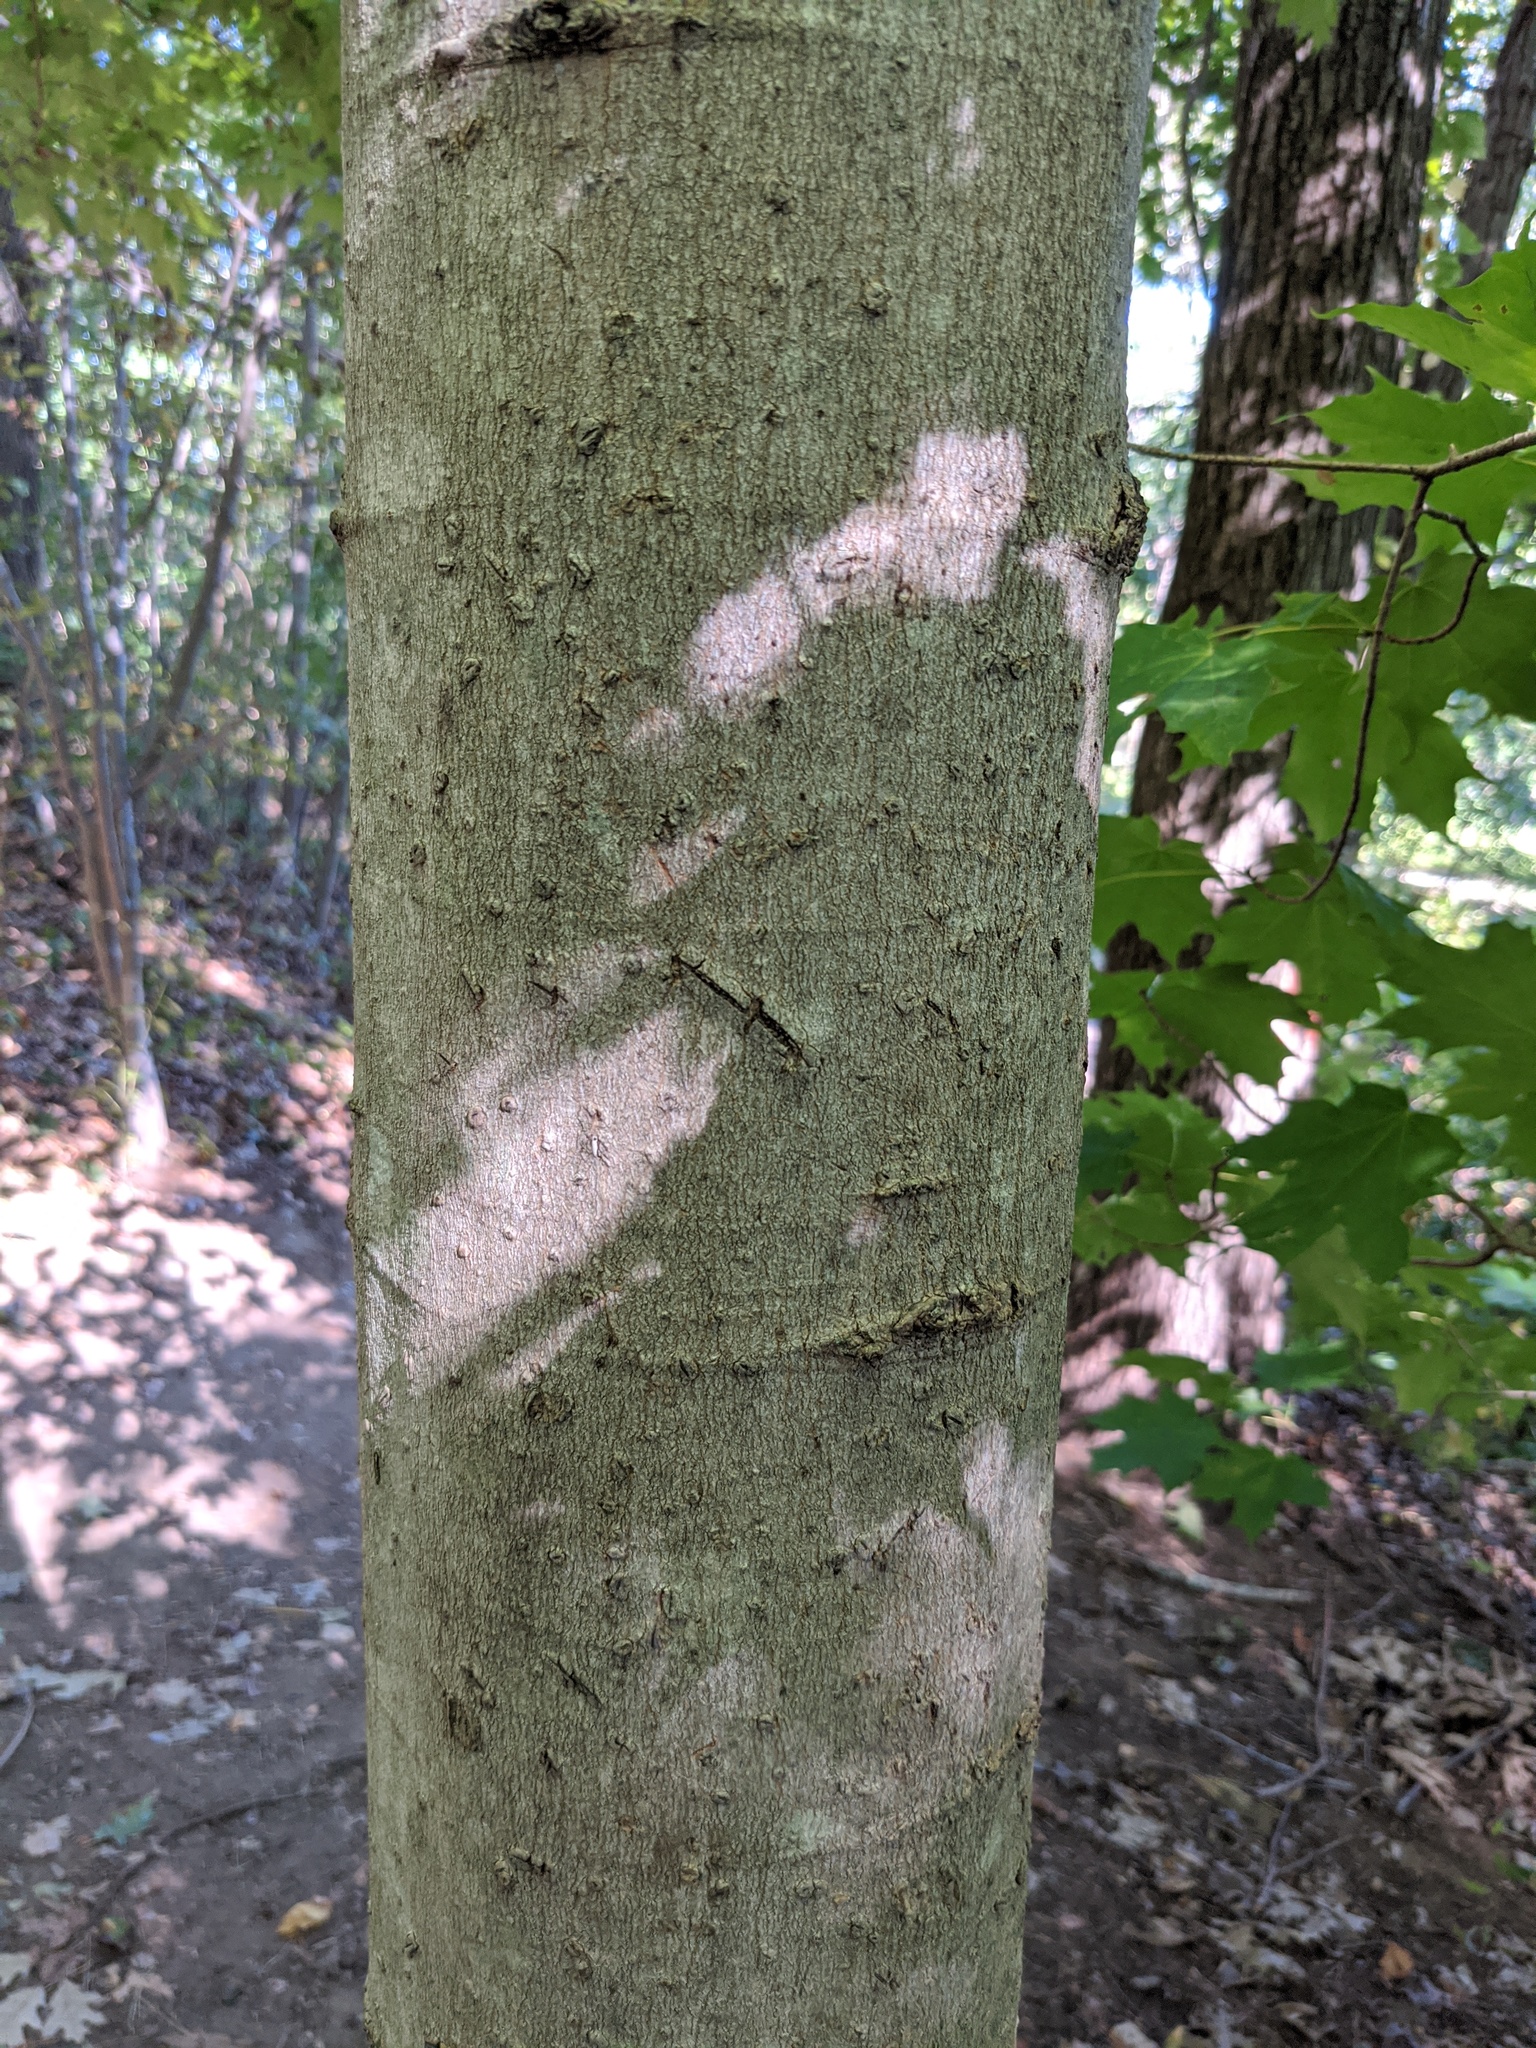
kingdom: Plantae
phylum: Tracheophyta
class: Magnoliopsida
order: Sapindales
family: Sapindaceae
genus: Acer
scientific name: Acer saccharum
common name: Sugar maple
